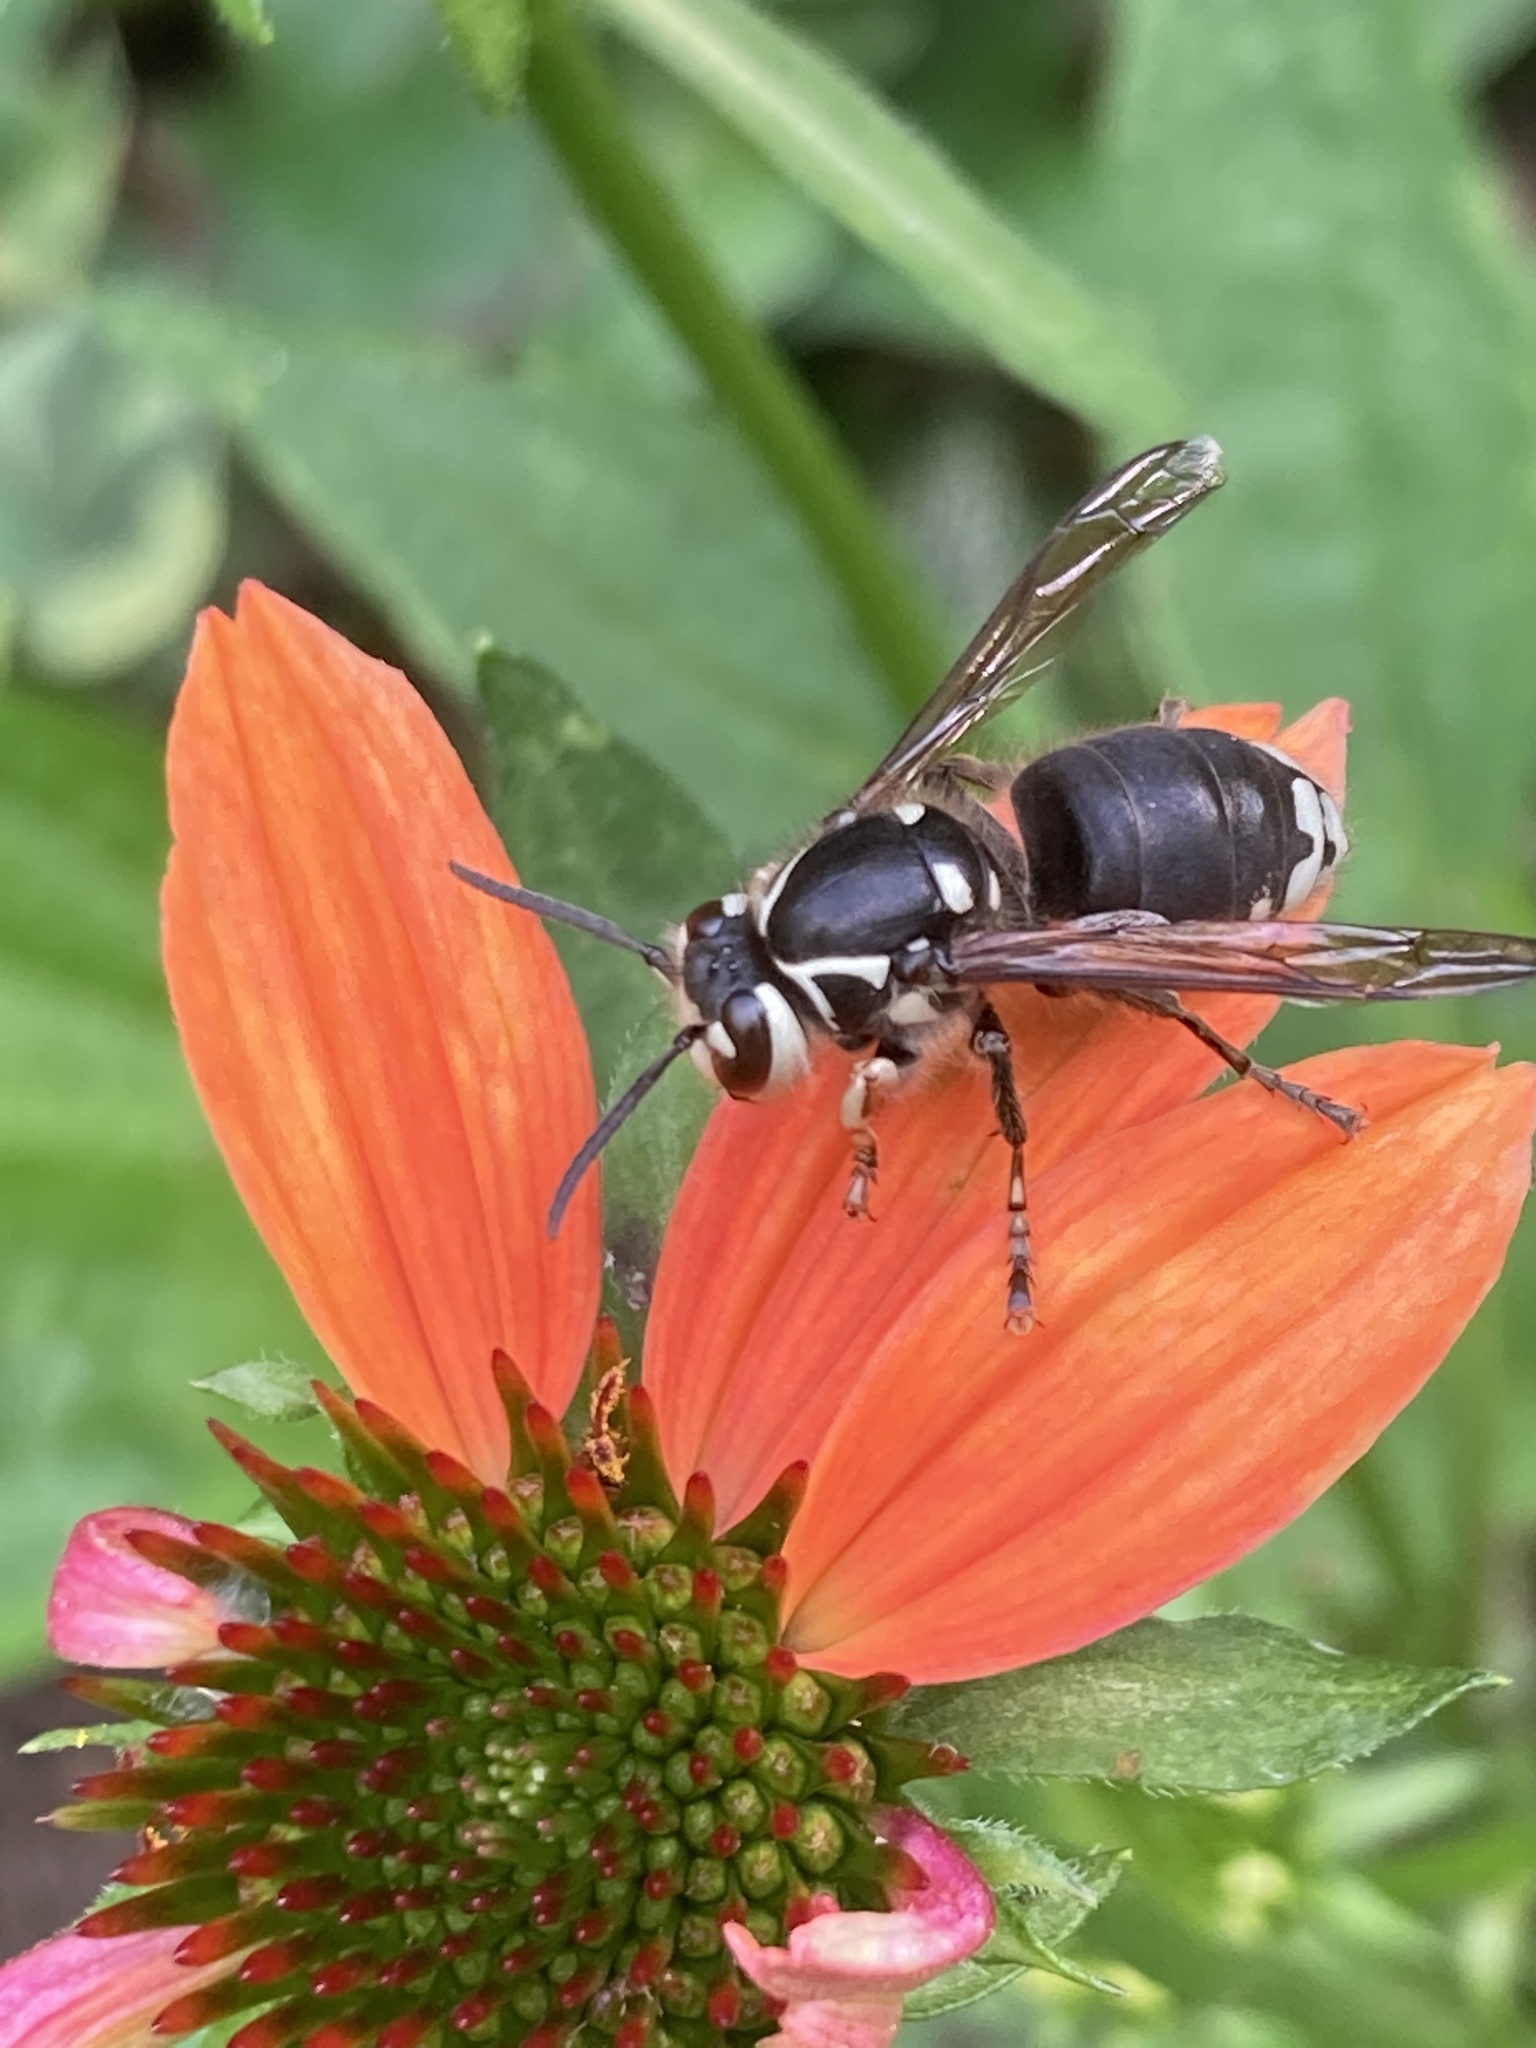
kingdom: Animalia
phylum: Arthropoda
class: Insecta
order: Hymenoptera
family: Vespidae
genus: Dolichovespula
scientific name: Dolichovespula maculata
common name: Bald-faced hornet
